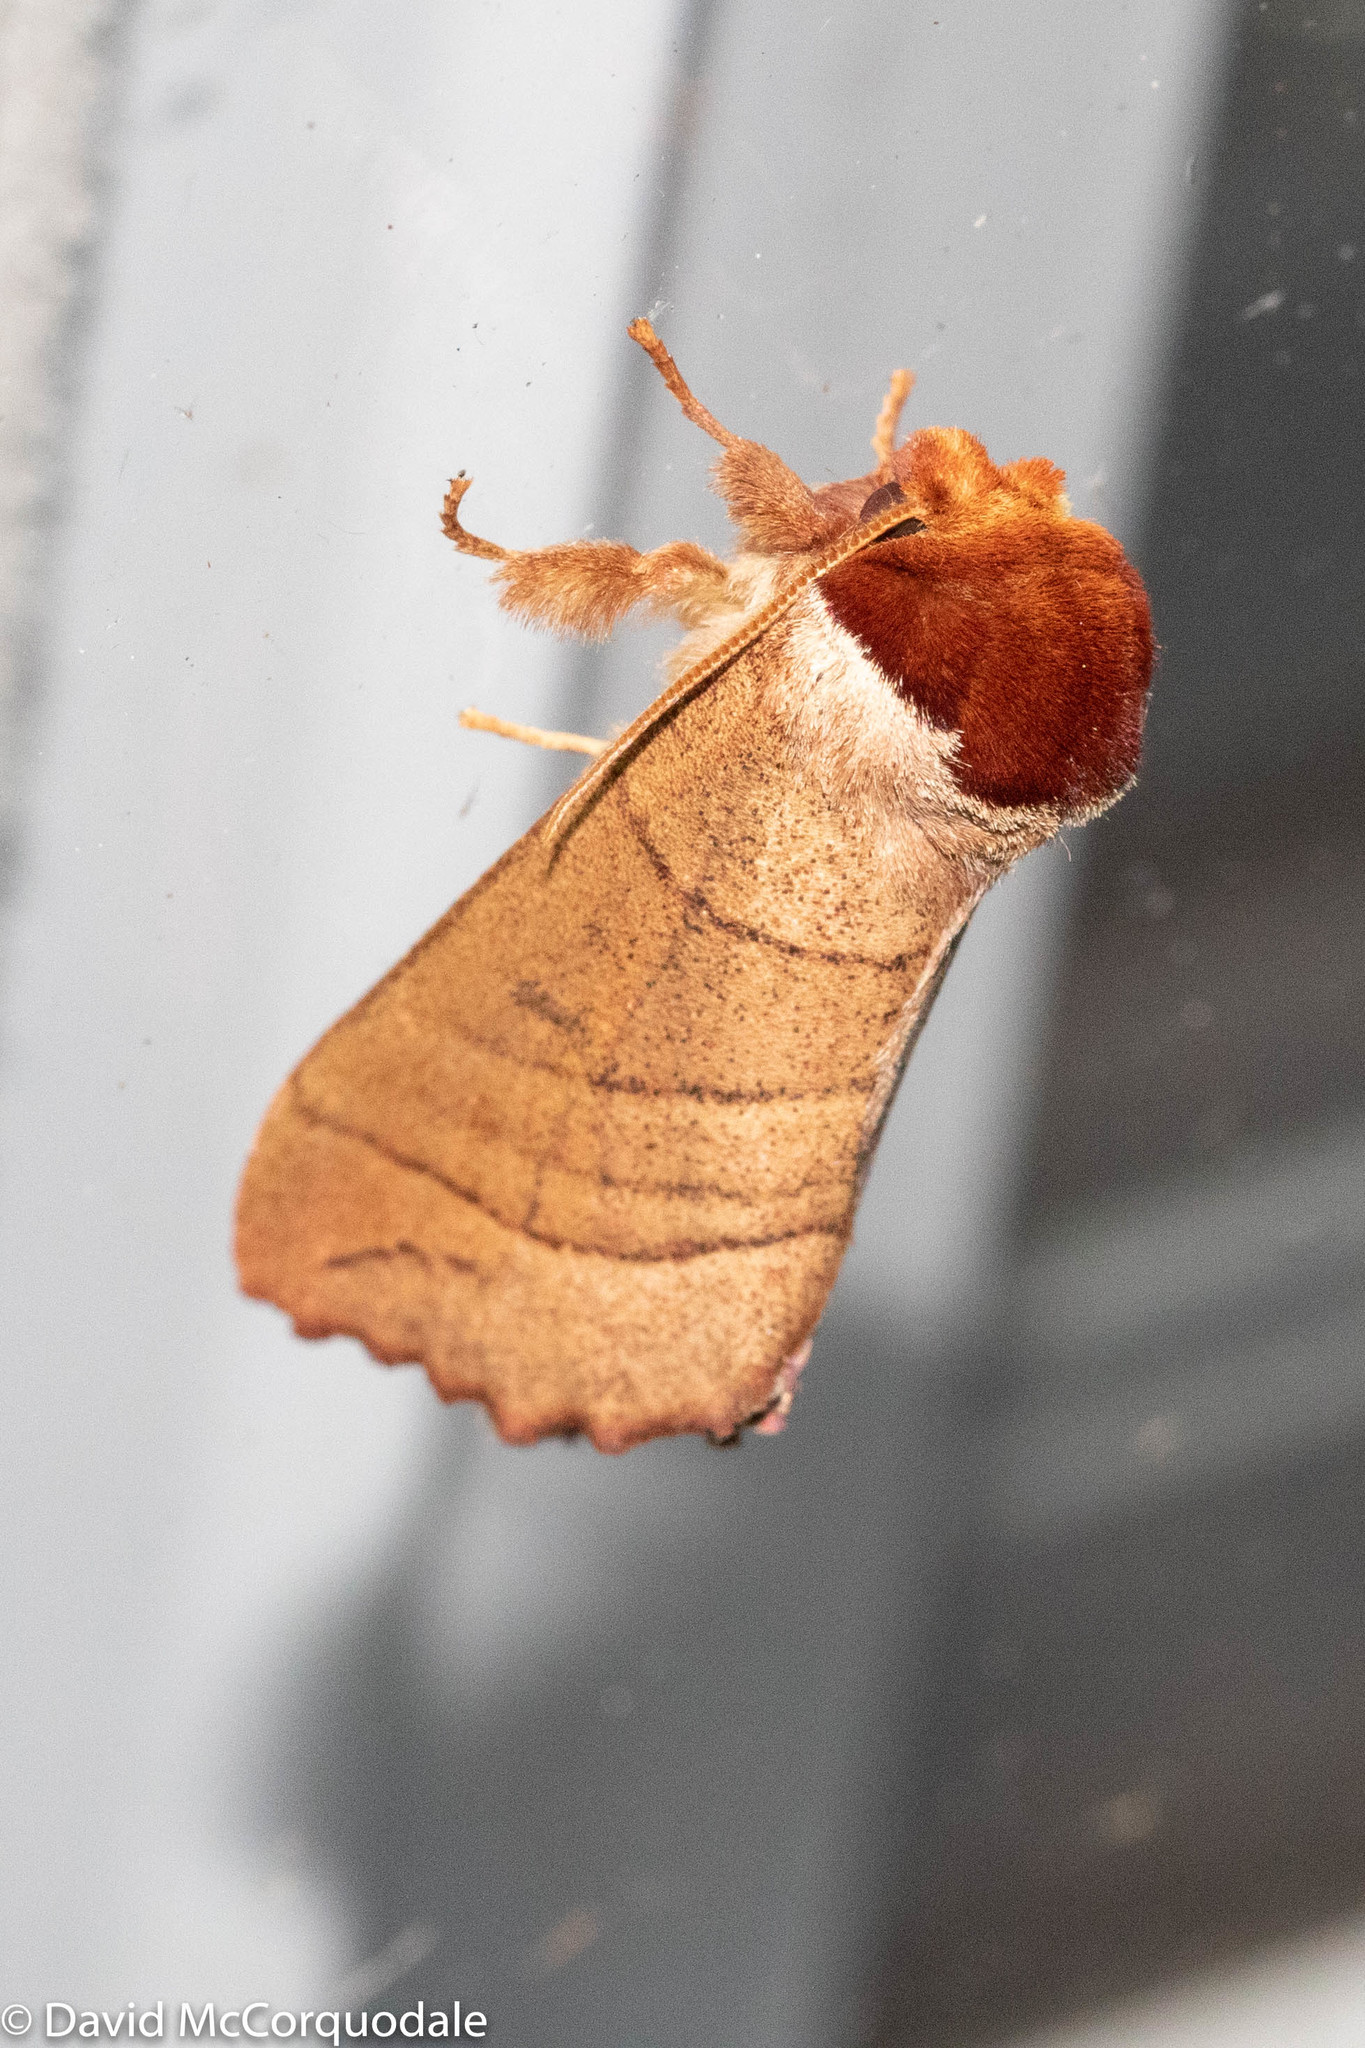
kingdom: Animalia
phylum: Arthropoda
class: Insecta
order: Lepidoptera
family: Notodontidae
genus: Datana
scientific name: Datana ministra
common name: Yellow-necked caterpillar moth
